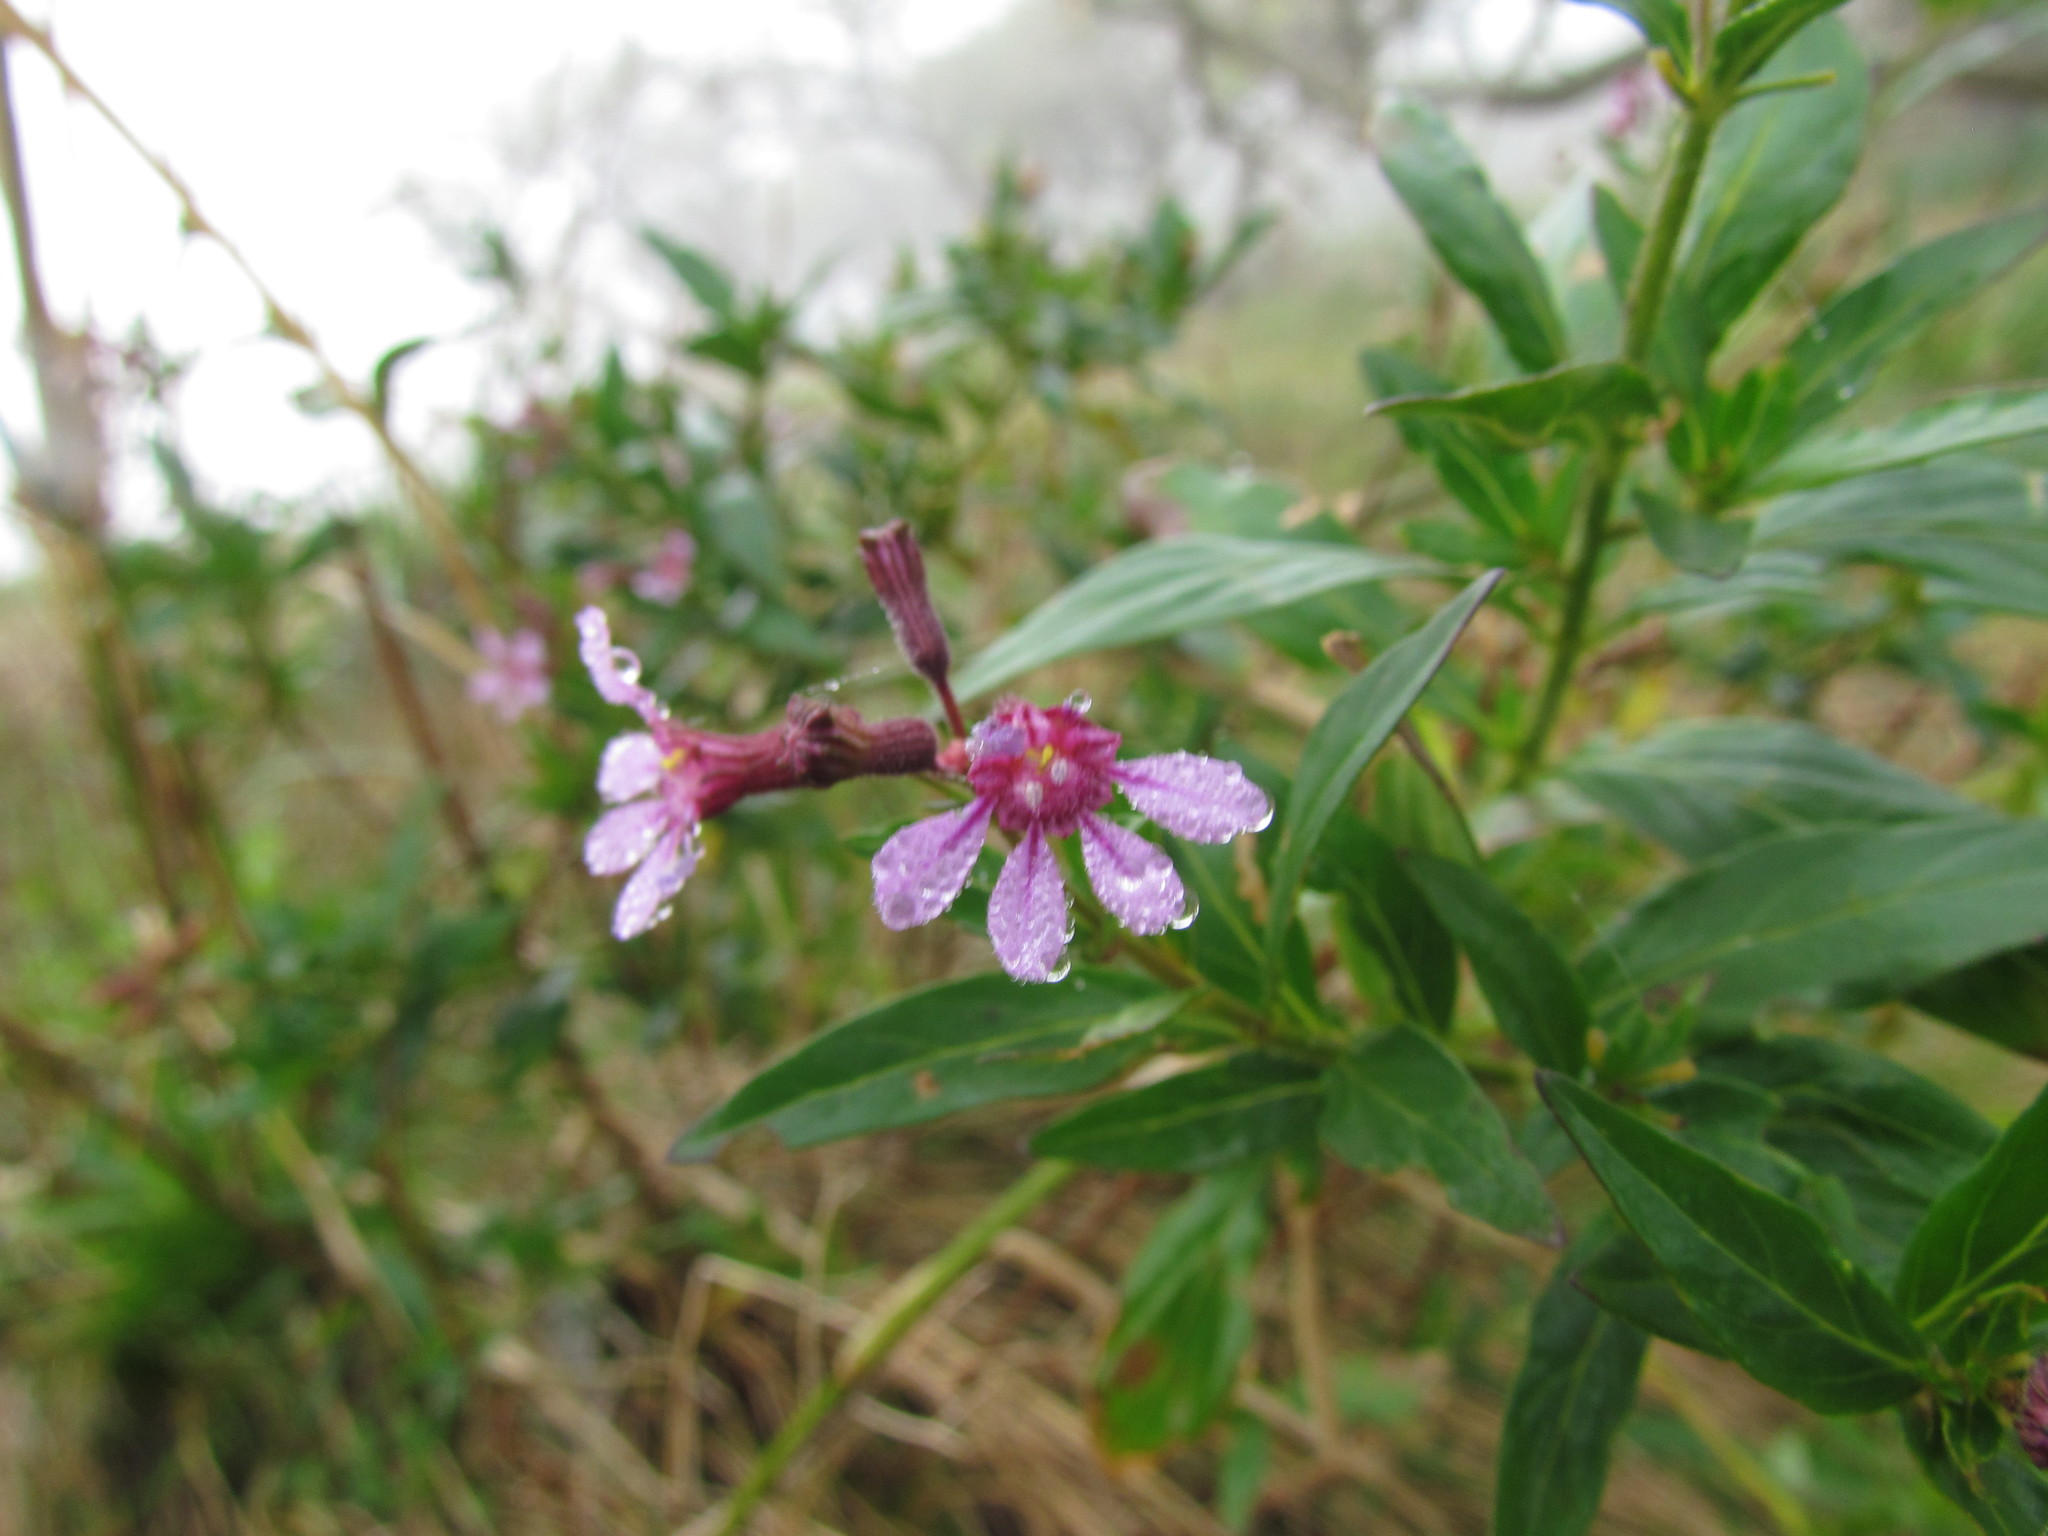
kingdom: Plantae
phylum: Tracheophyta
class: Magnoliopsida
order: Myrtales
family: Lythraceae
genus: Cuphea
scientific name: Cuphea fruticosa
